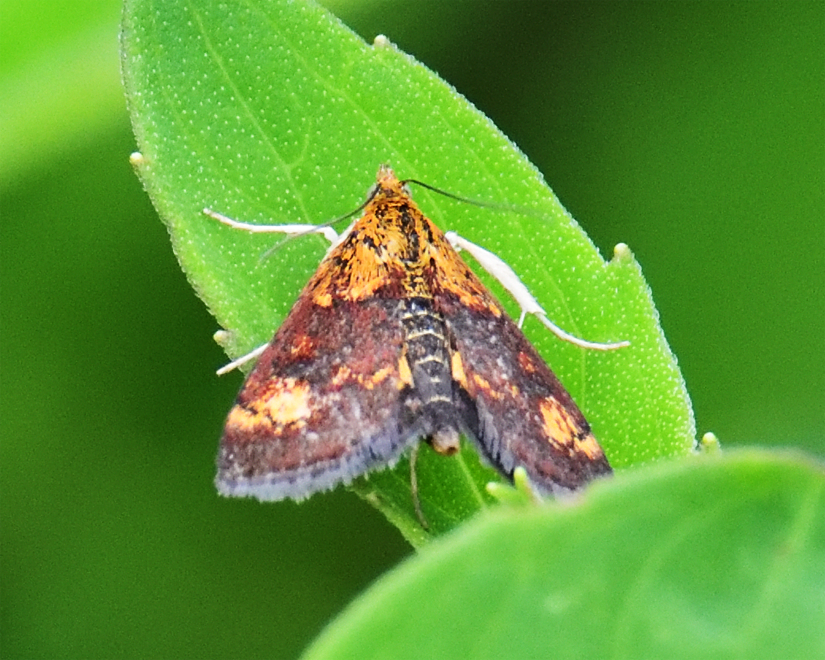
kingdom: Animalia
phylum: Arthropoda
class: Insecta
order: Lepidoptera
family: Crambidae
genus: Pyrausta
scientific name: Pyrausta orphisalis
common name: Orange mint moth
